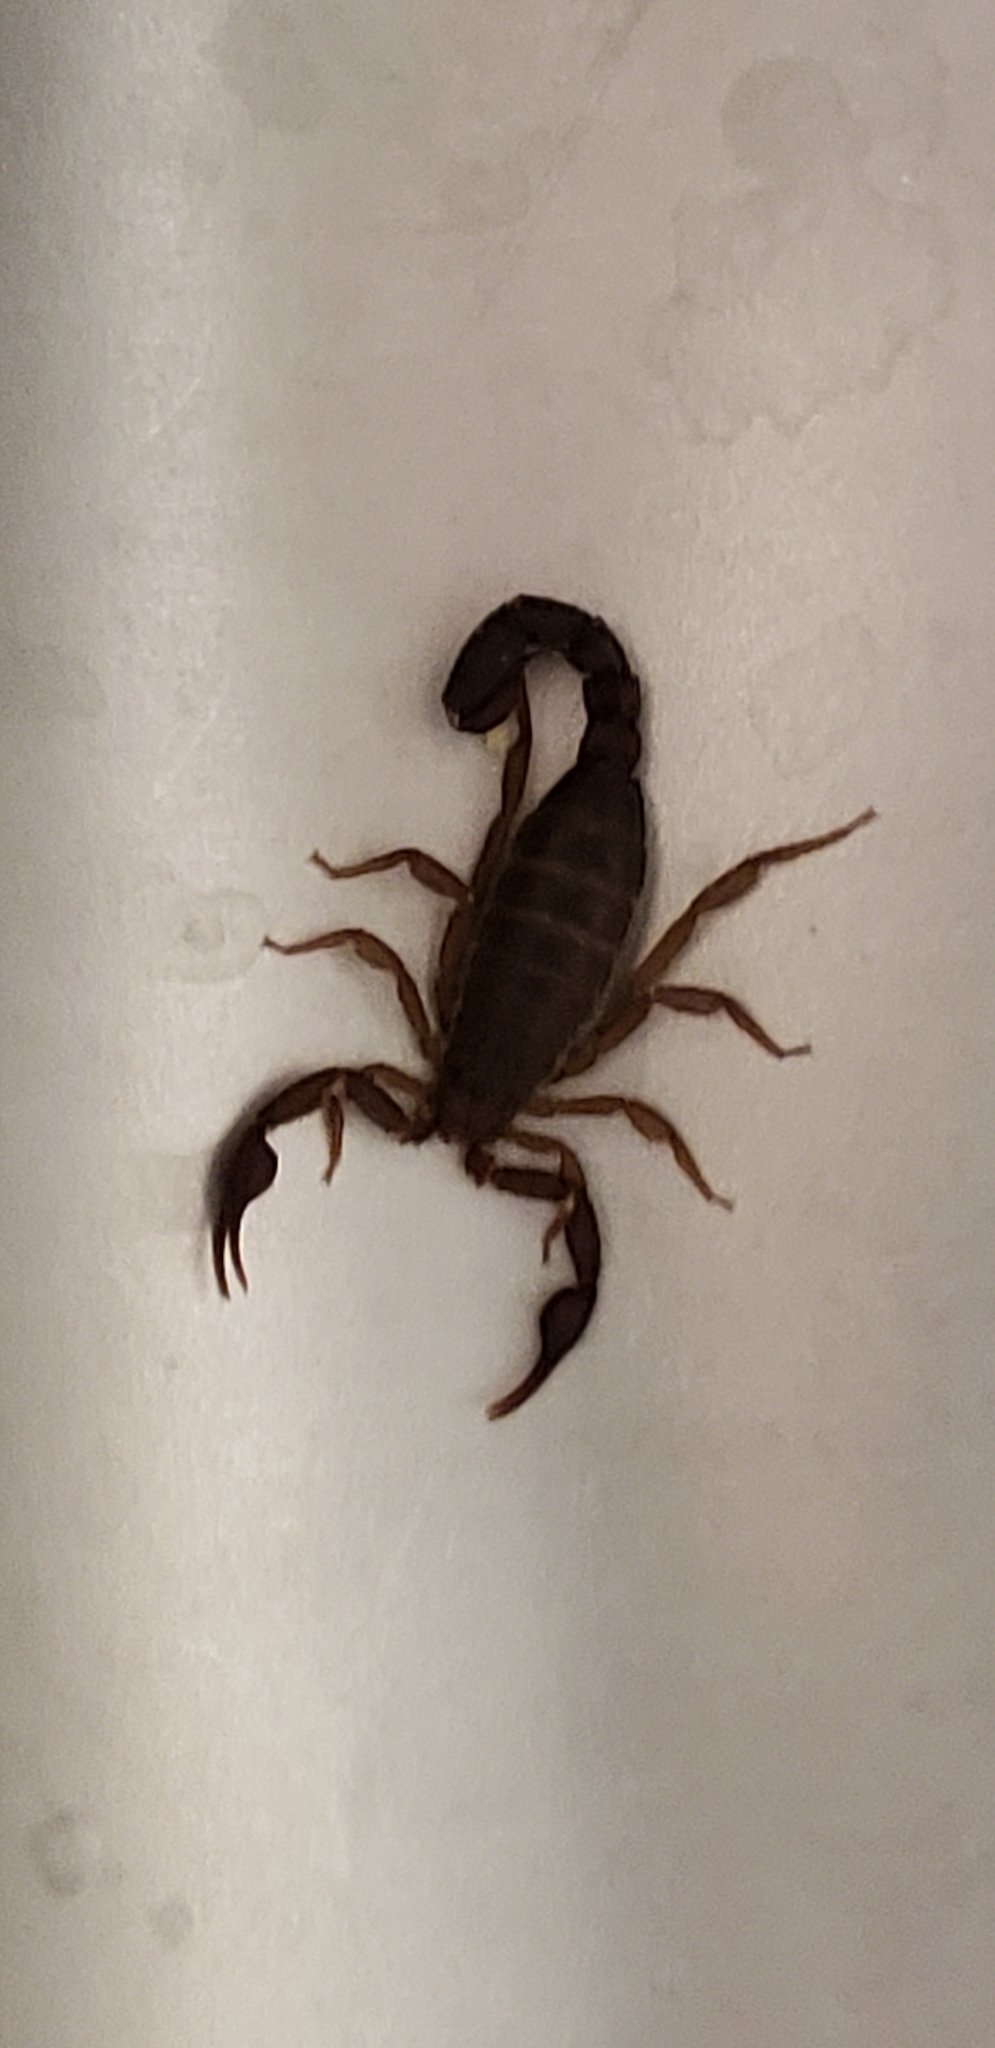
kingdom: Animalia
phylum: Arthropoda
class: Arachnida
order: Scorpiones
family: Vaejovidae
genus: Vaejovis
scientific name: Vaejovis carolinianus
